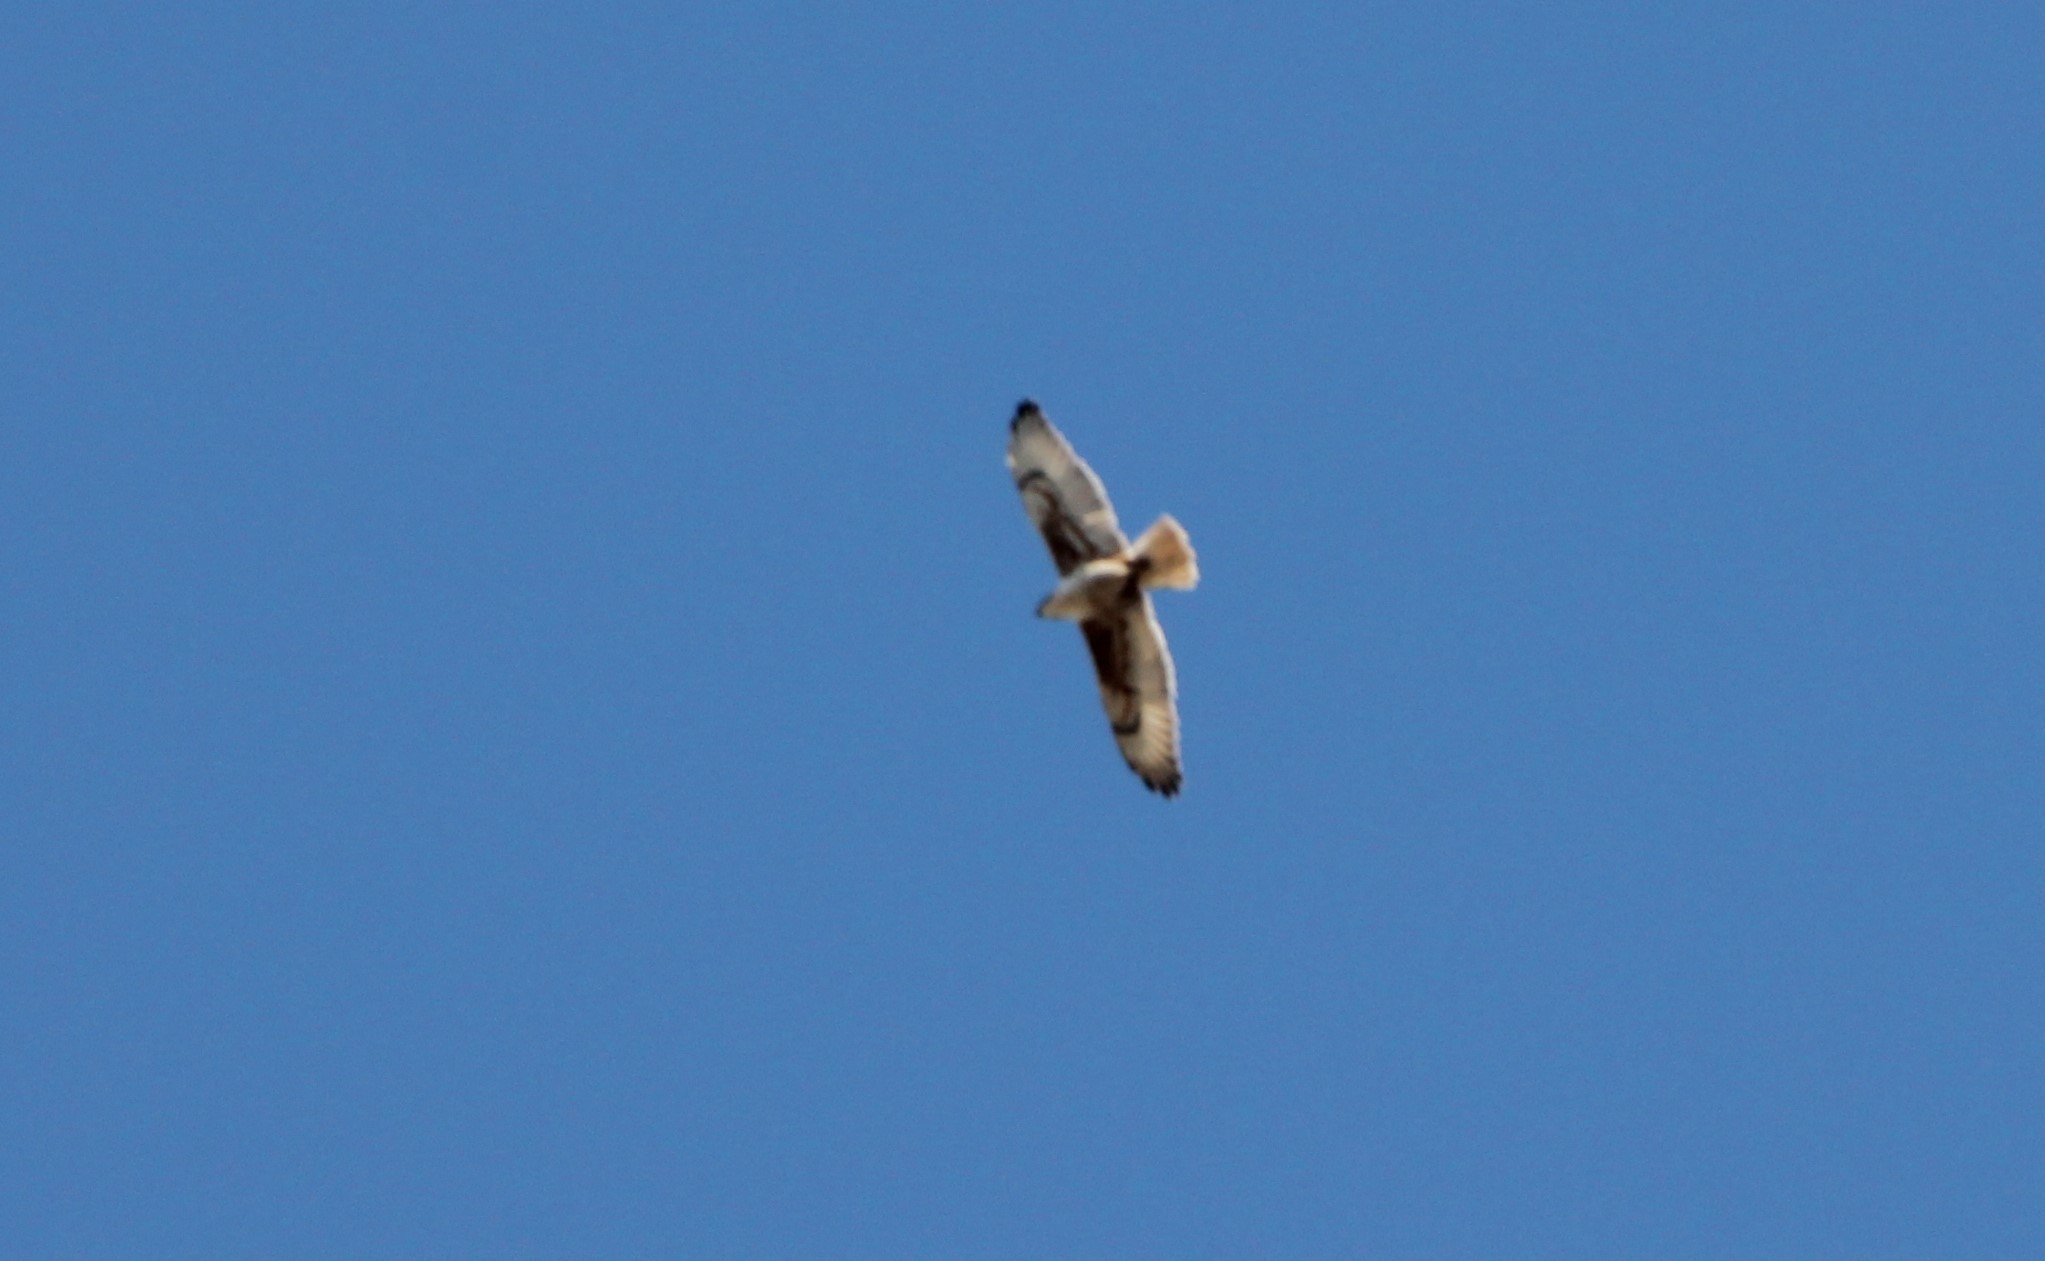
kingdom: Animalia
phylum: Chordata
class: Aves
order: Accipitriformes
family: Accipitridae
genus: Buteo
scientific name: Buteo regalis
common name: Ferruginous hawk
